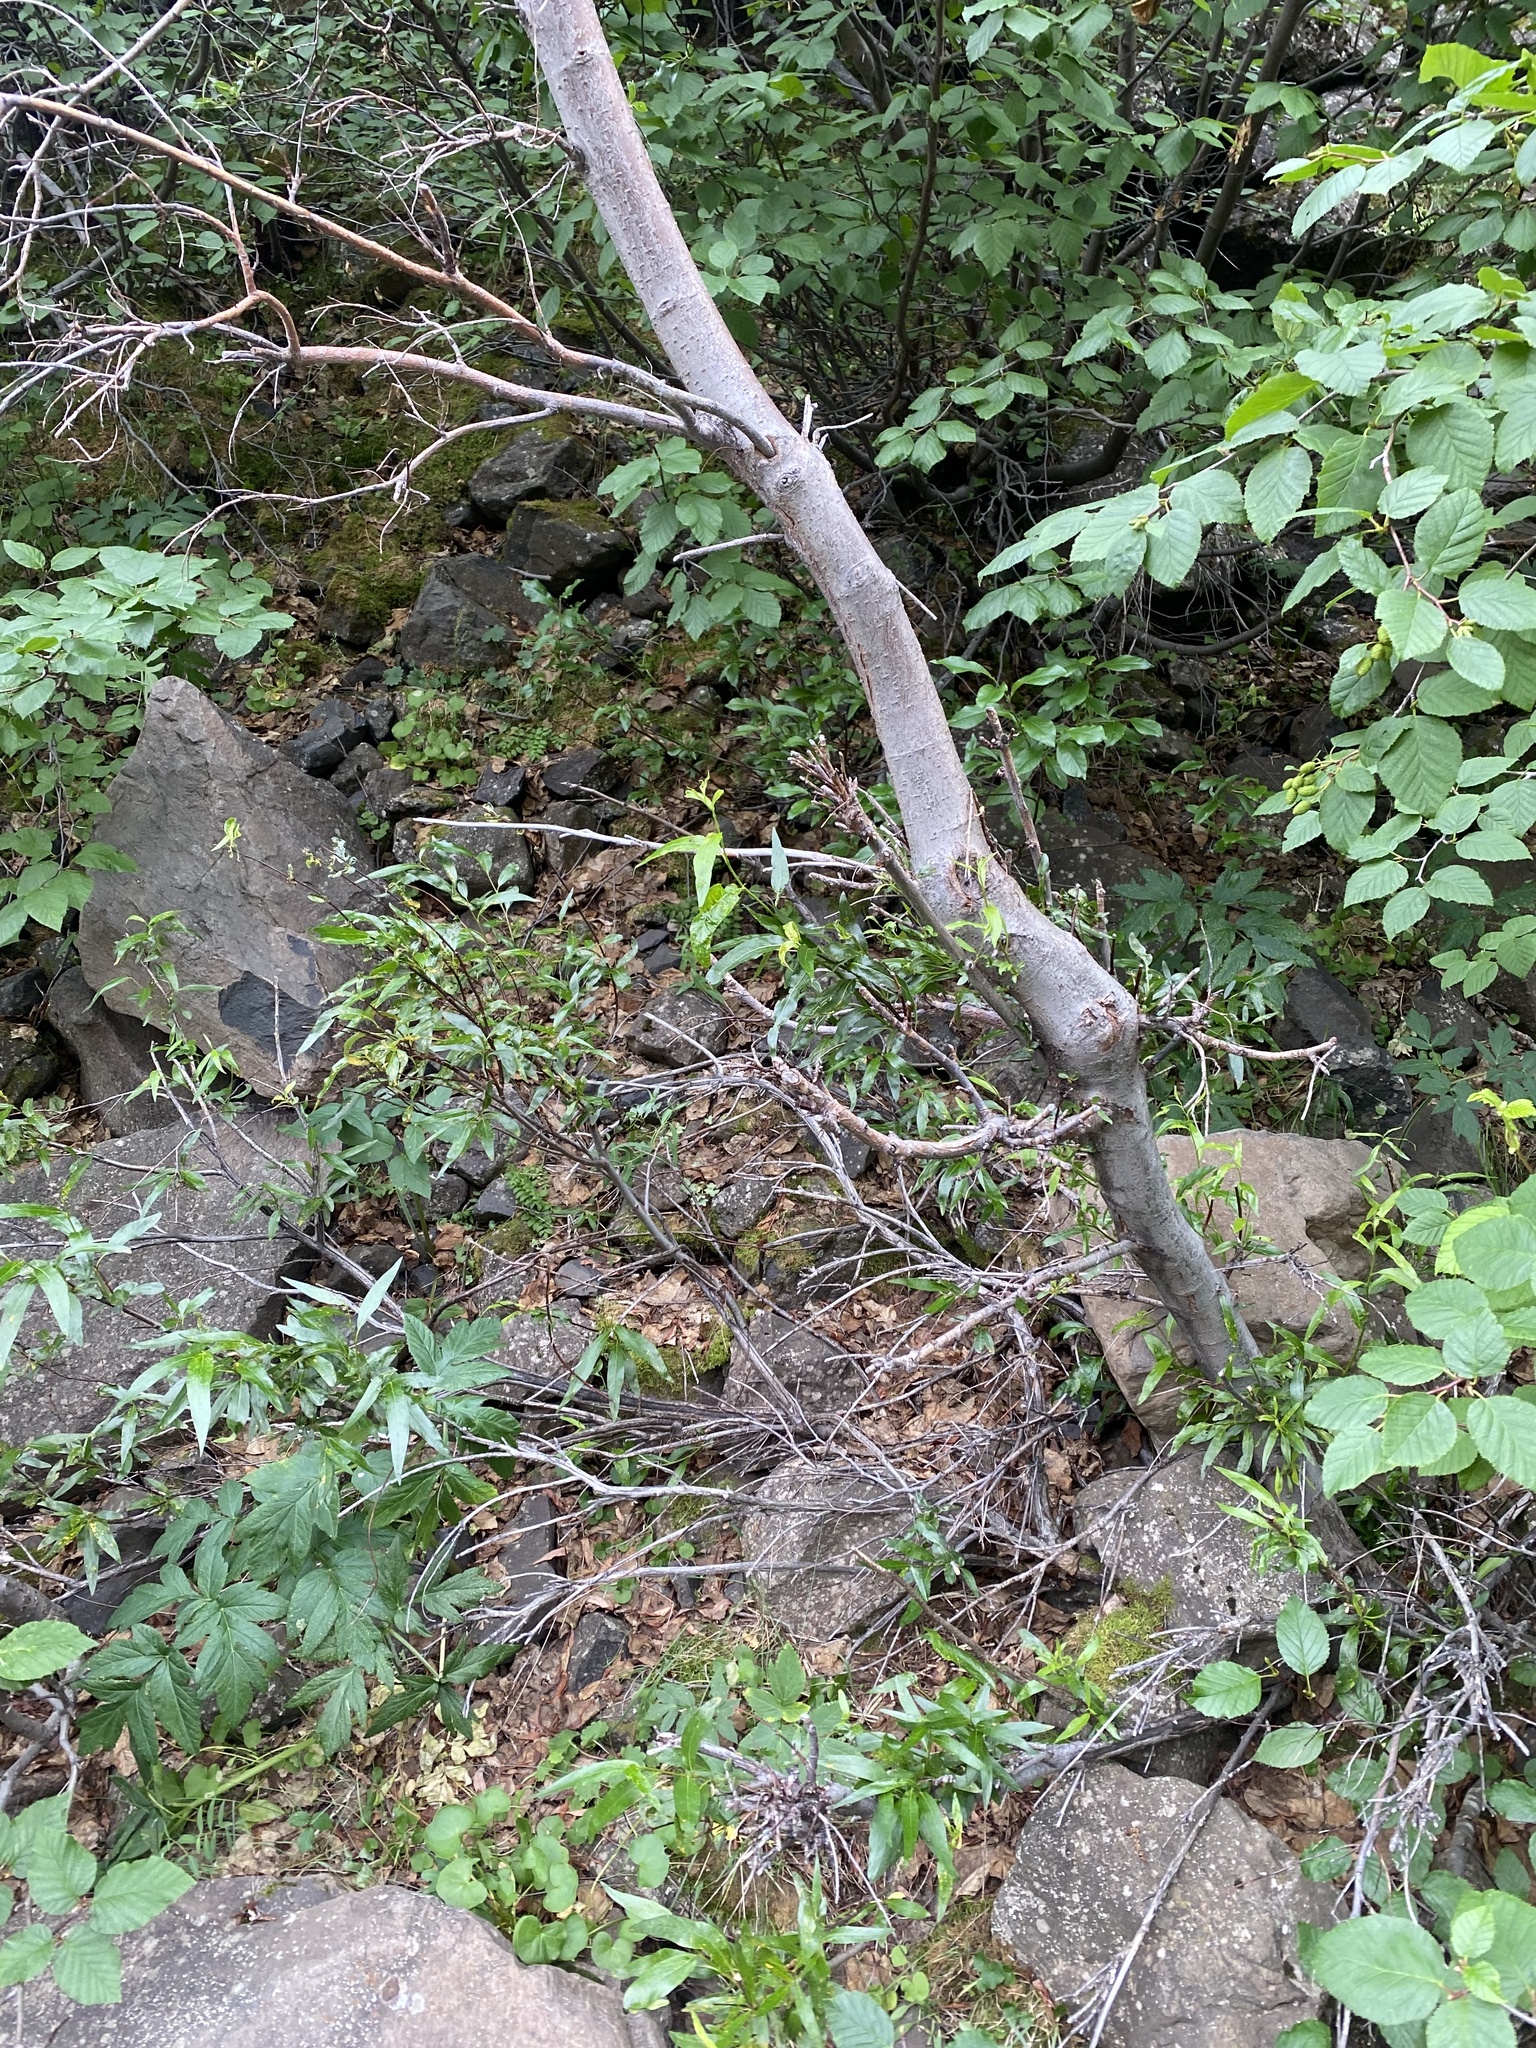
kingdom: Plantae
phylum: Tracheophyta
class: Magnoliopsida
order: Malpighiales
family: Salicaceae
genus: Salix
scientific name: Salix gmelinii
